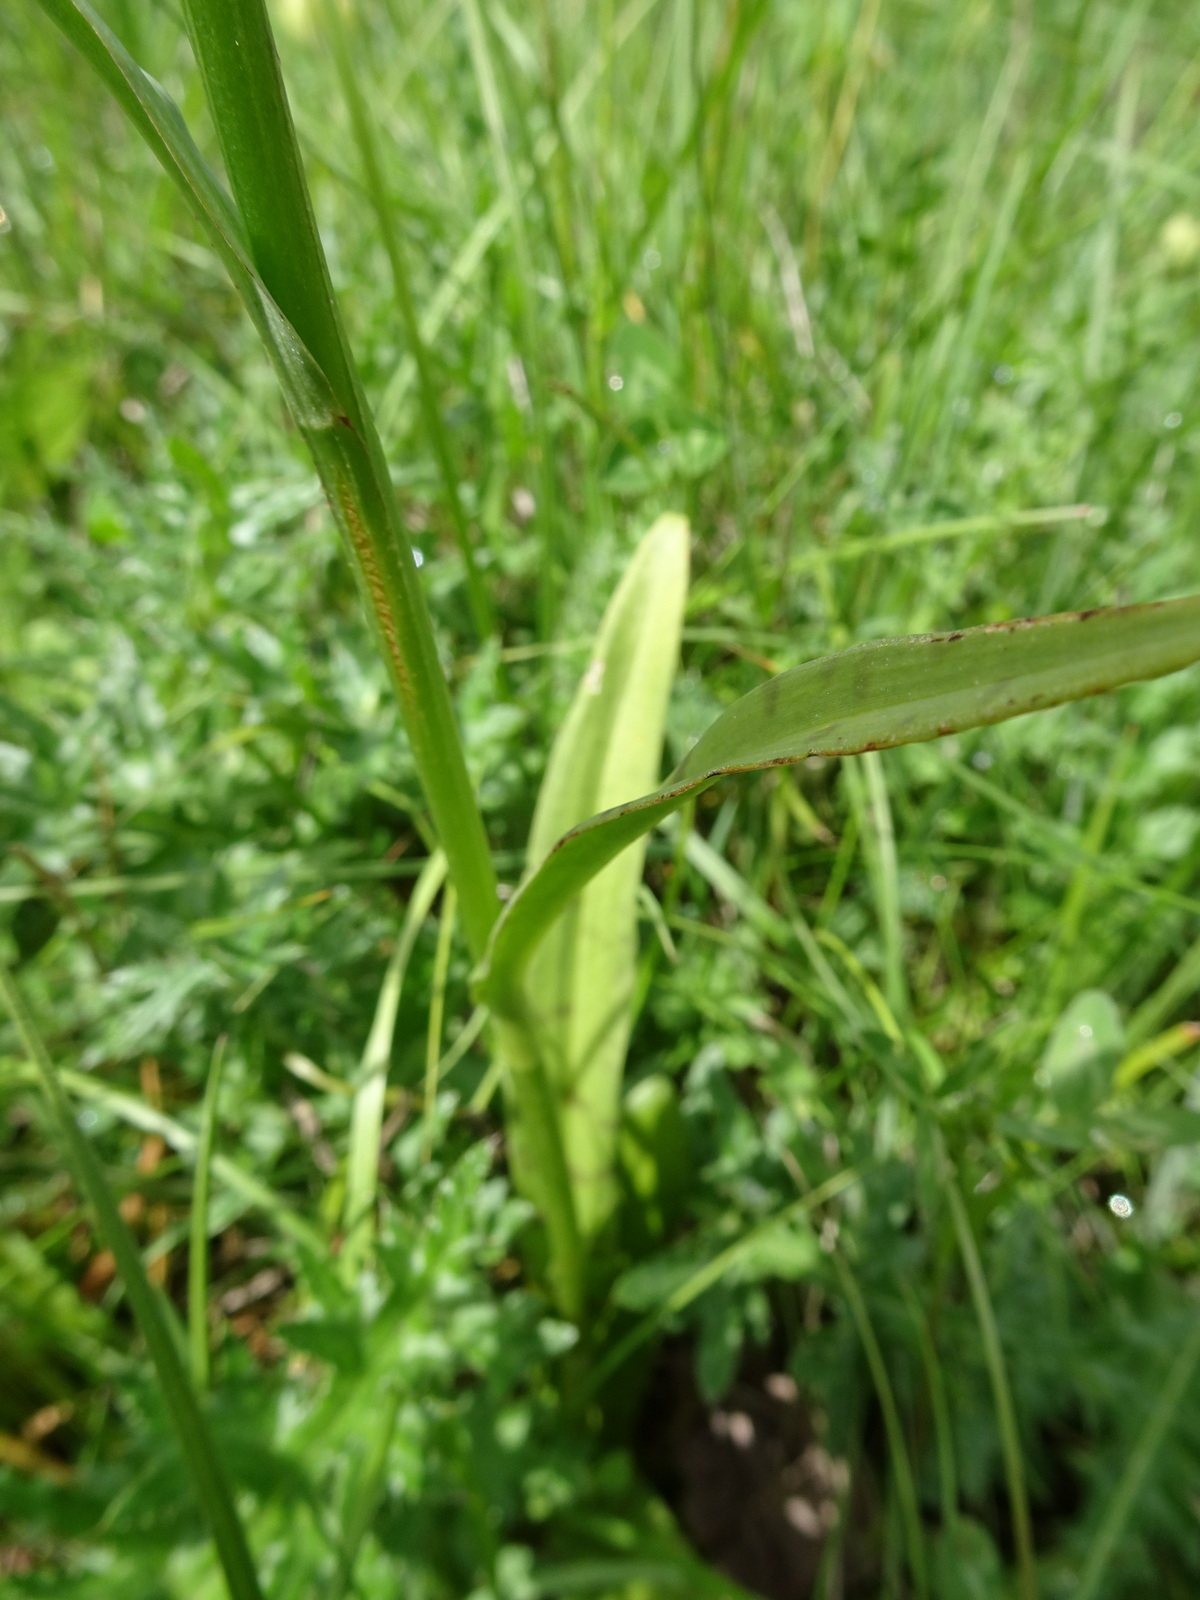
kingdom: Plantae
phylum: Tracheophyta
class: Liliopsida
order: Asparagales
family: Orchidaceae
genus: Dactylorhiza
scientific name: Dactylorhiza maculata
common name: Heath spotted-orchid
